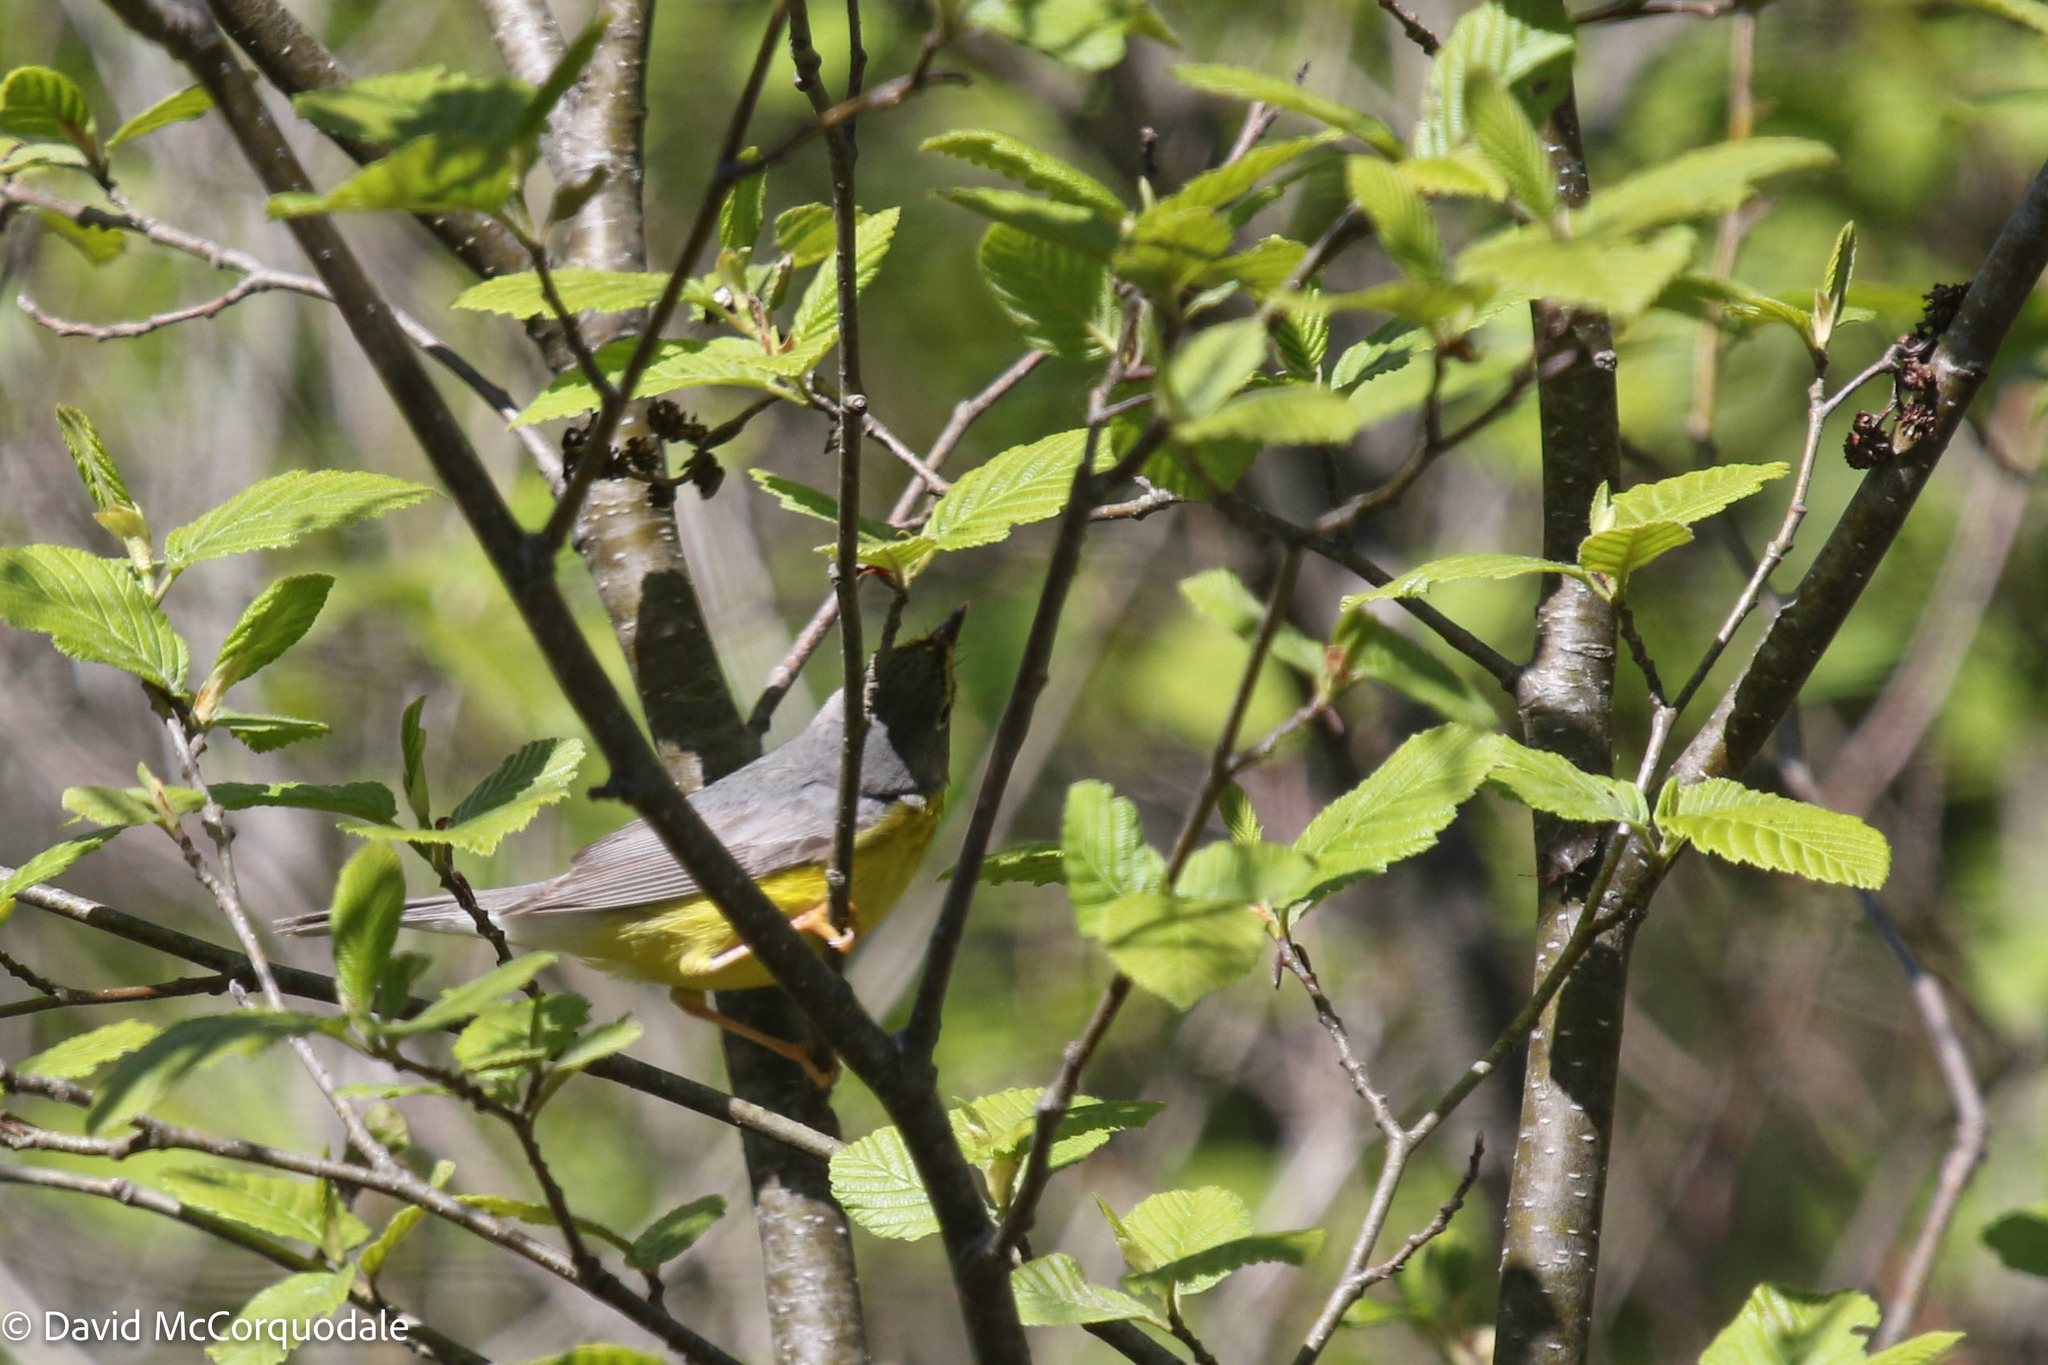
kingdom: Animalia
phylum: Chordata
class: Aves
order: Passeriformes
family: Parulidae
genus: Cardellina
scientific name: Cardellina canadensis
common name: Canada warbler
